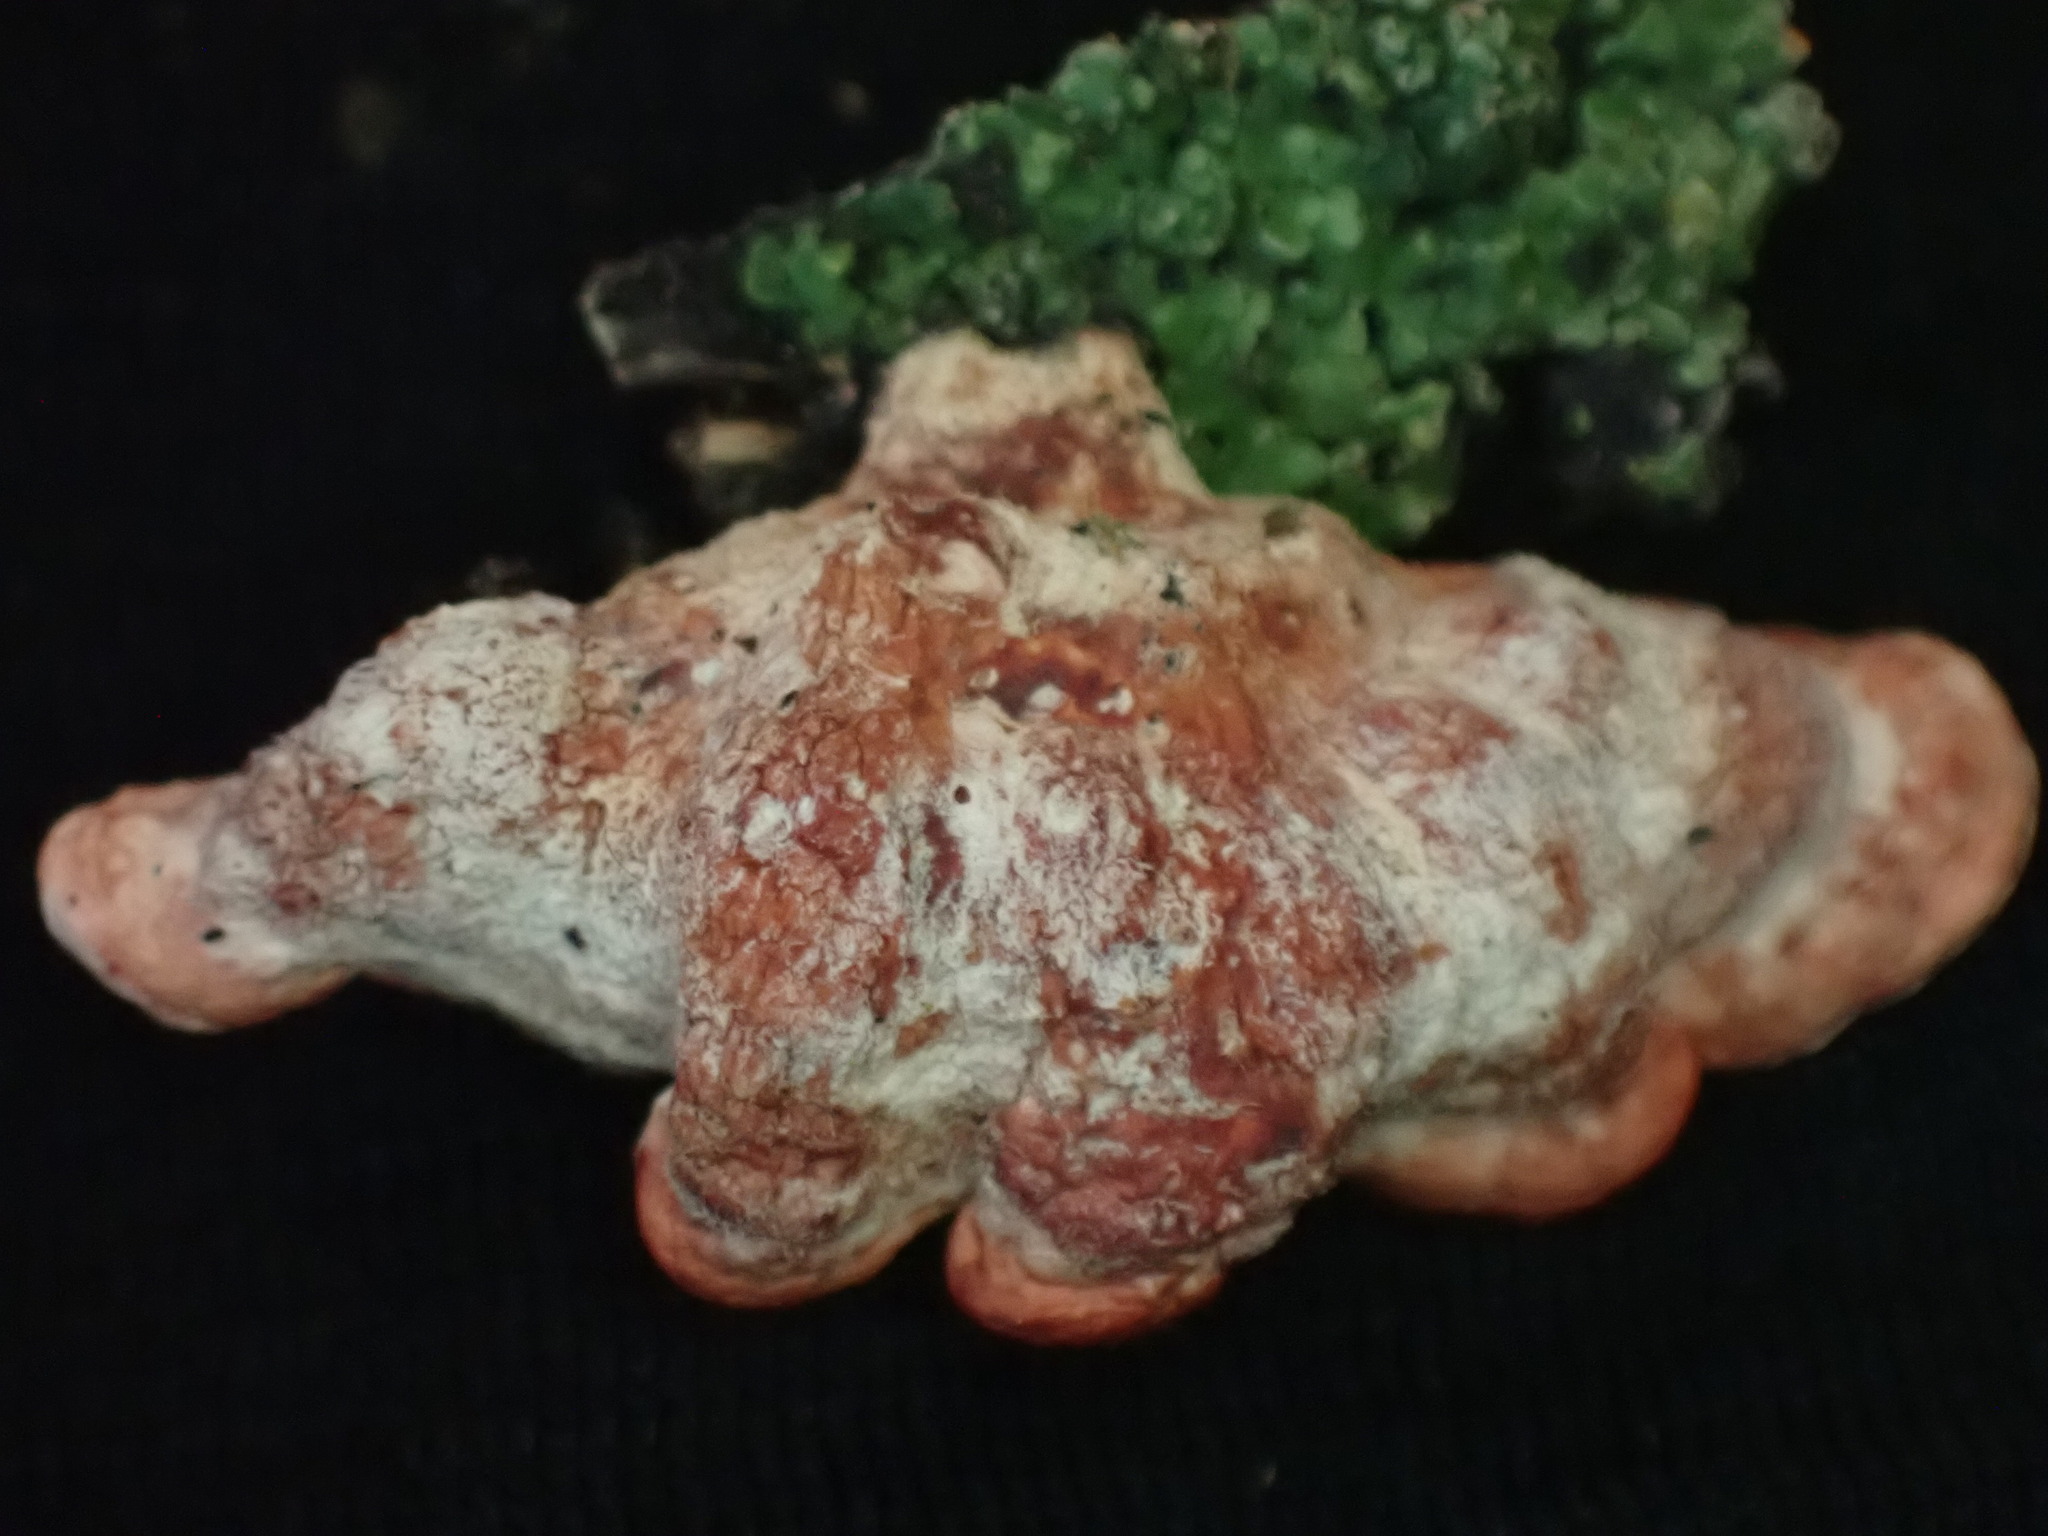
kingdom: Fungi
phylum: Basidiomycota
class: Agaricomycetes
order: Polyporales
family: Meruliaceae
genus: Phlebia
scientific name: Phlebia
